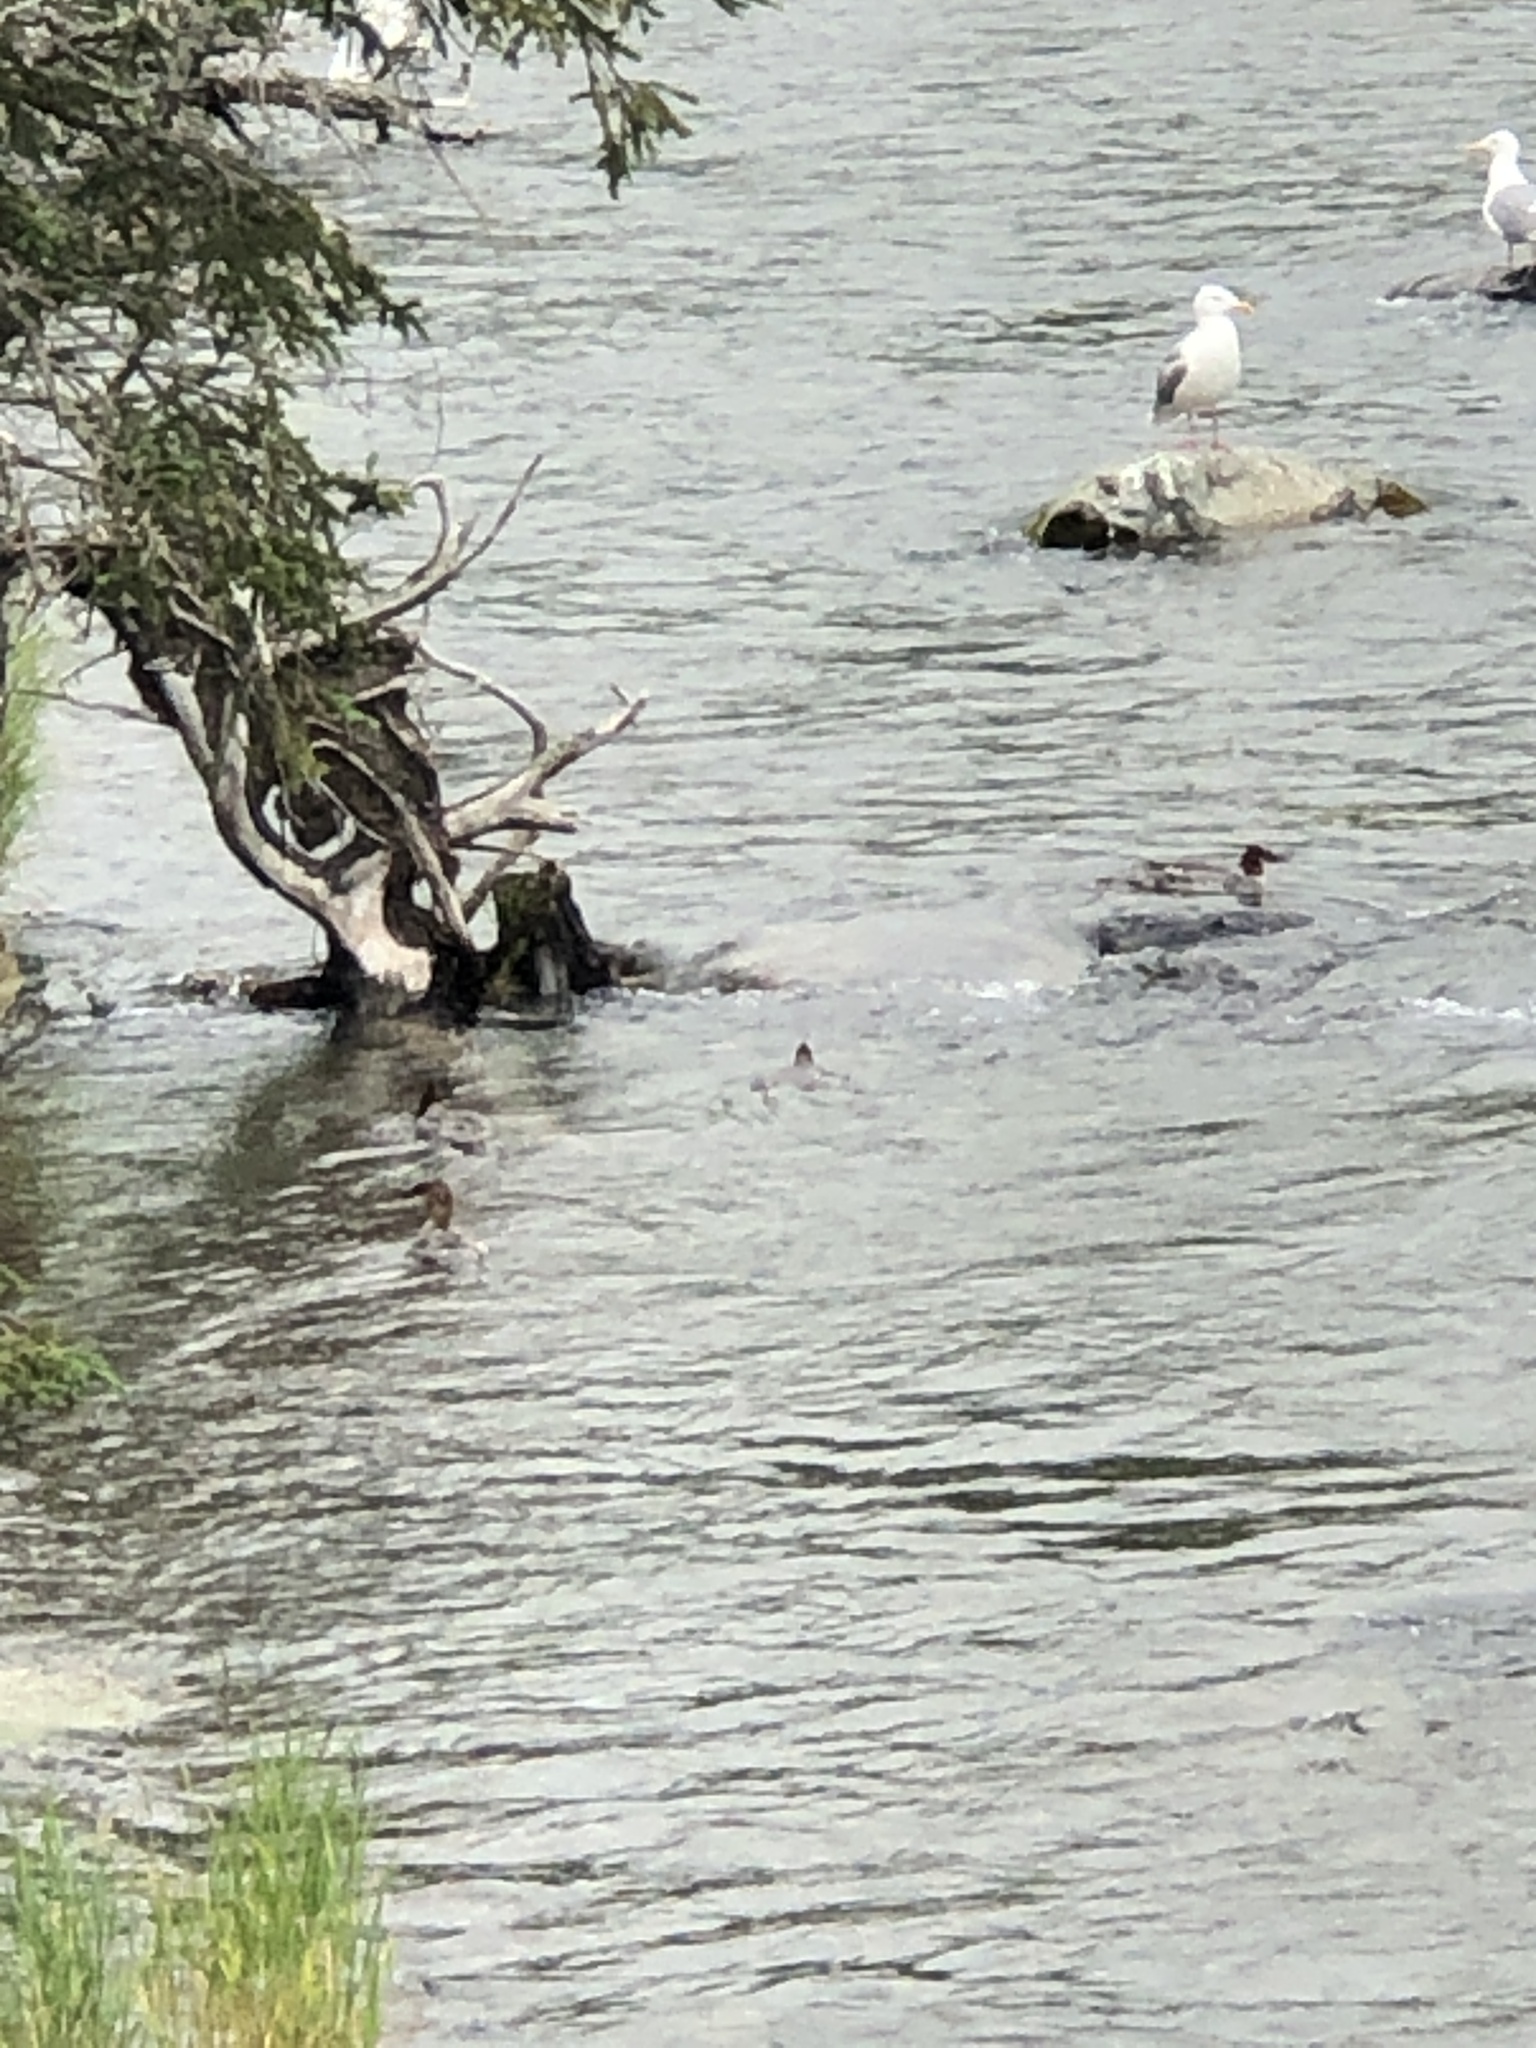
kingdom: Animalia
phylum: Chordata
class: Aves
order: Anseriformes
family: Anatidae
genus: Mergus
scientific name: Mergus merganser
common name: Common merganser
